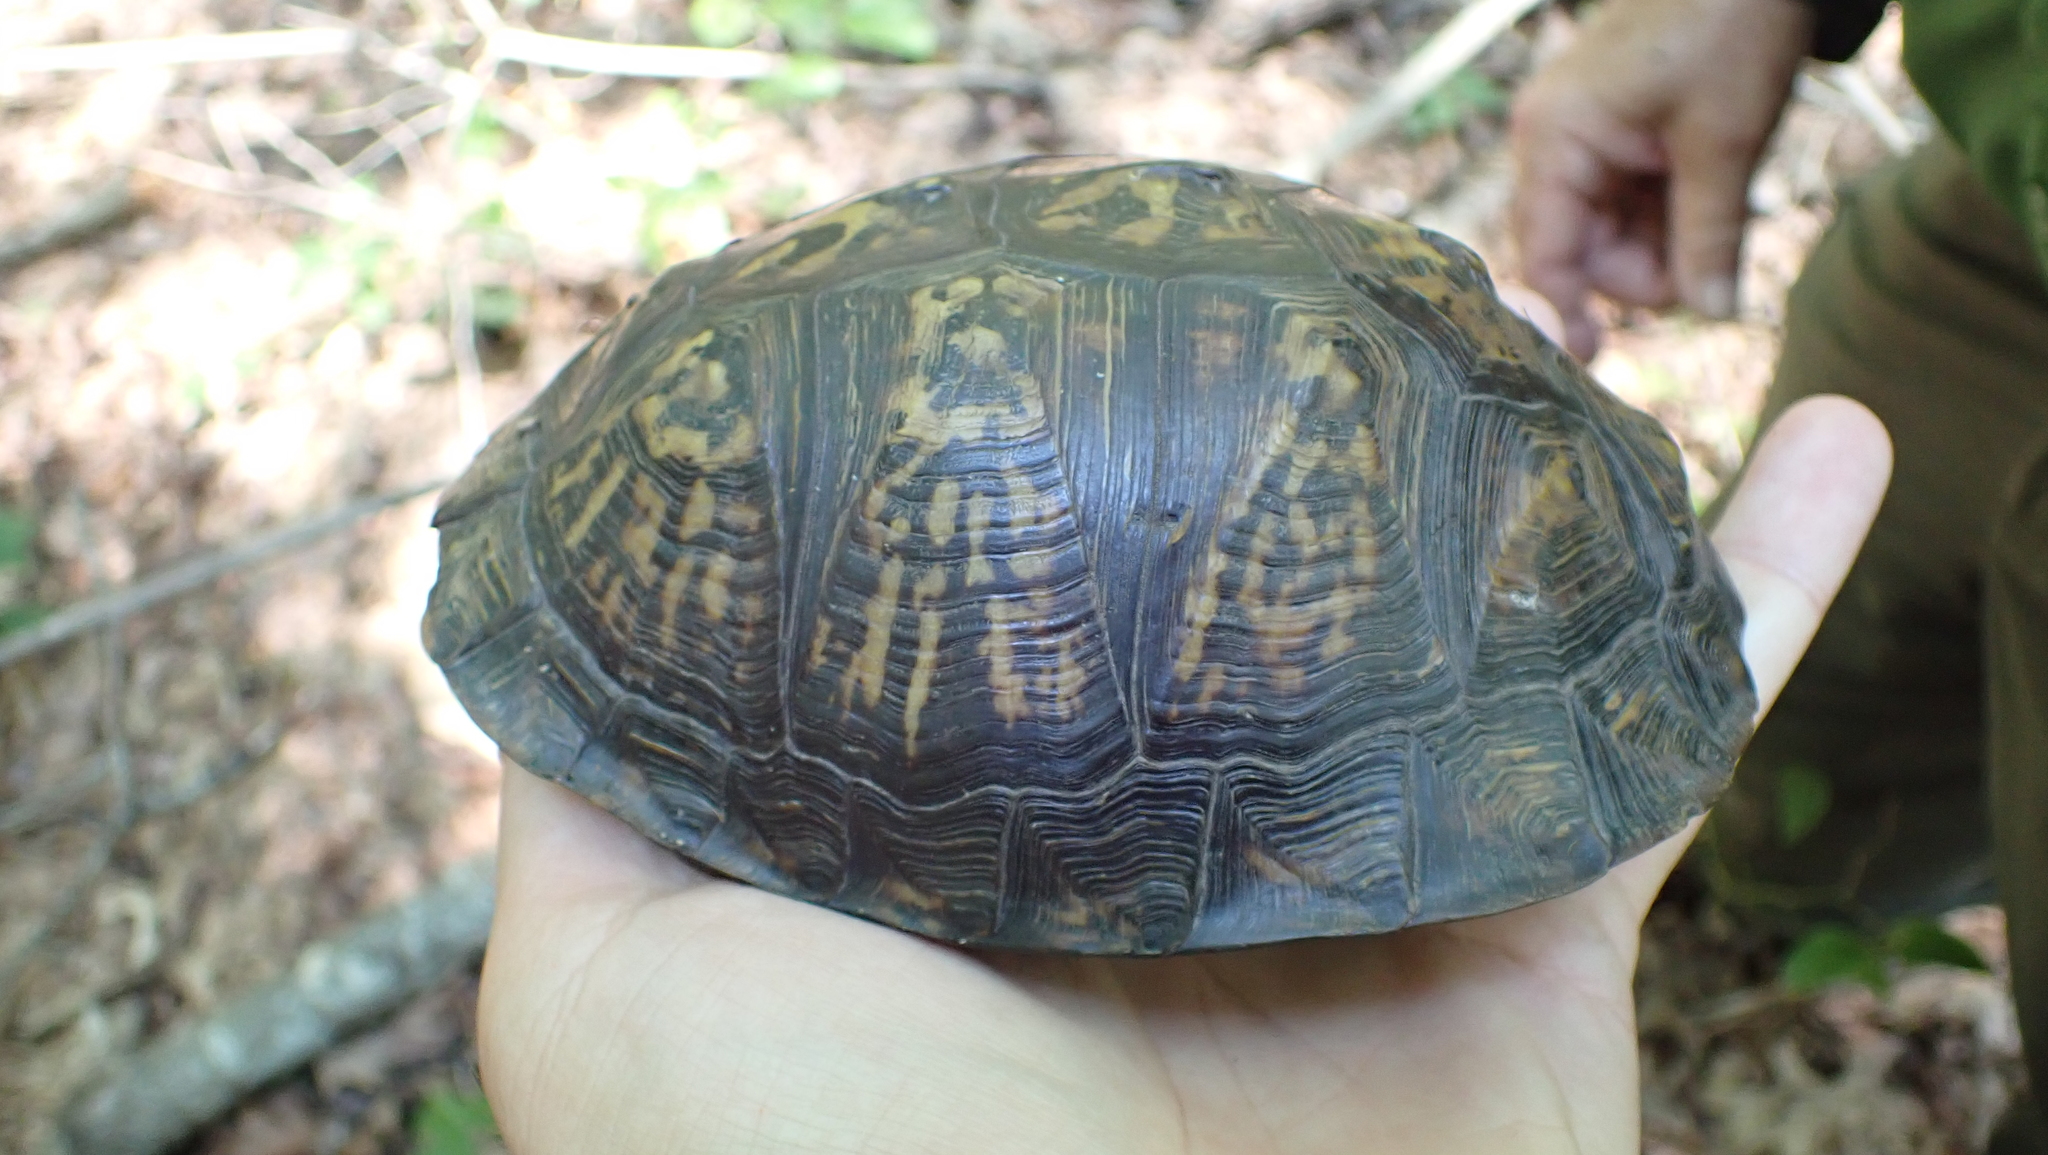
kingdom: Animalia
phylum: Chordata
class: Testudines
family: Emydidae
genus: Terrapene
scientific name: Terrapene carolina
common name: Common box turtle
